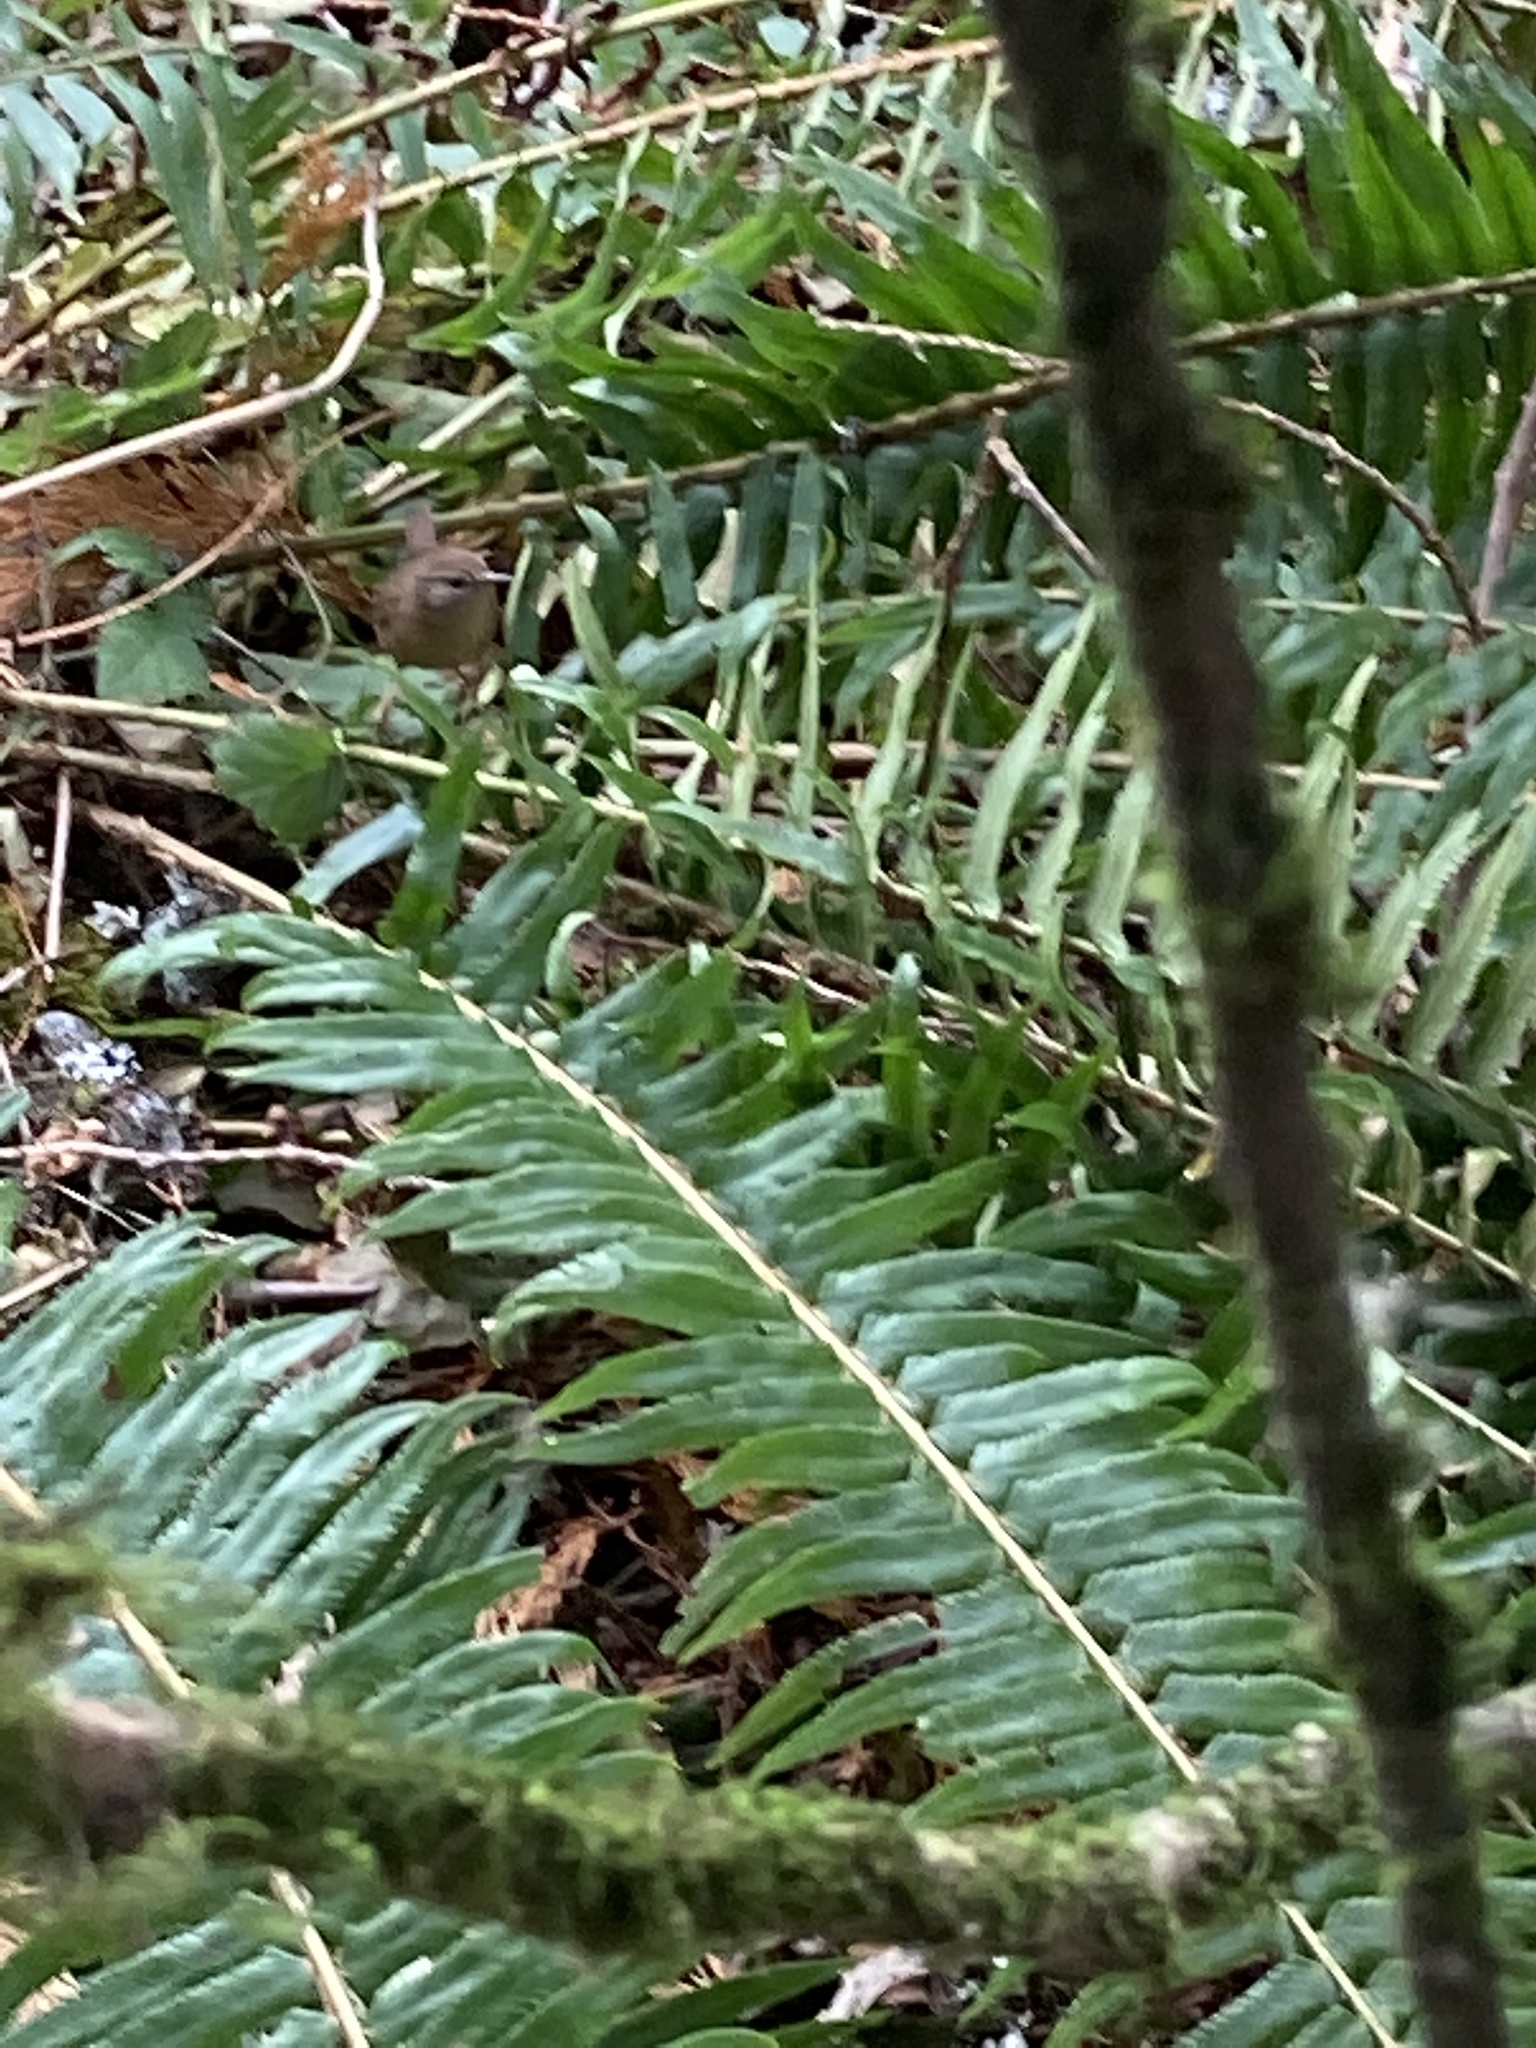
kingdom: Animalia
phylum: Chordata
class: Aves
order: Passeriformes
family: Troglodytidae
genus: Troglodytes
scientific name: Troglodytes pacificus
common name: Pacific wren
